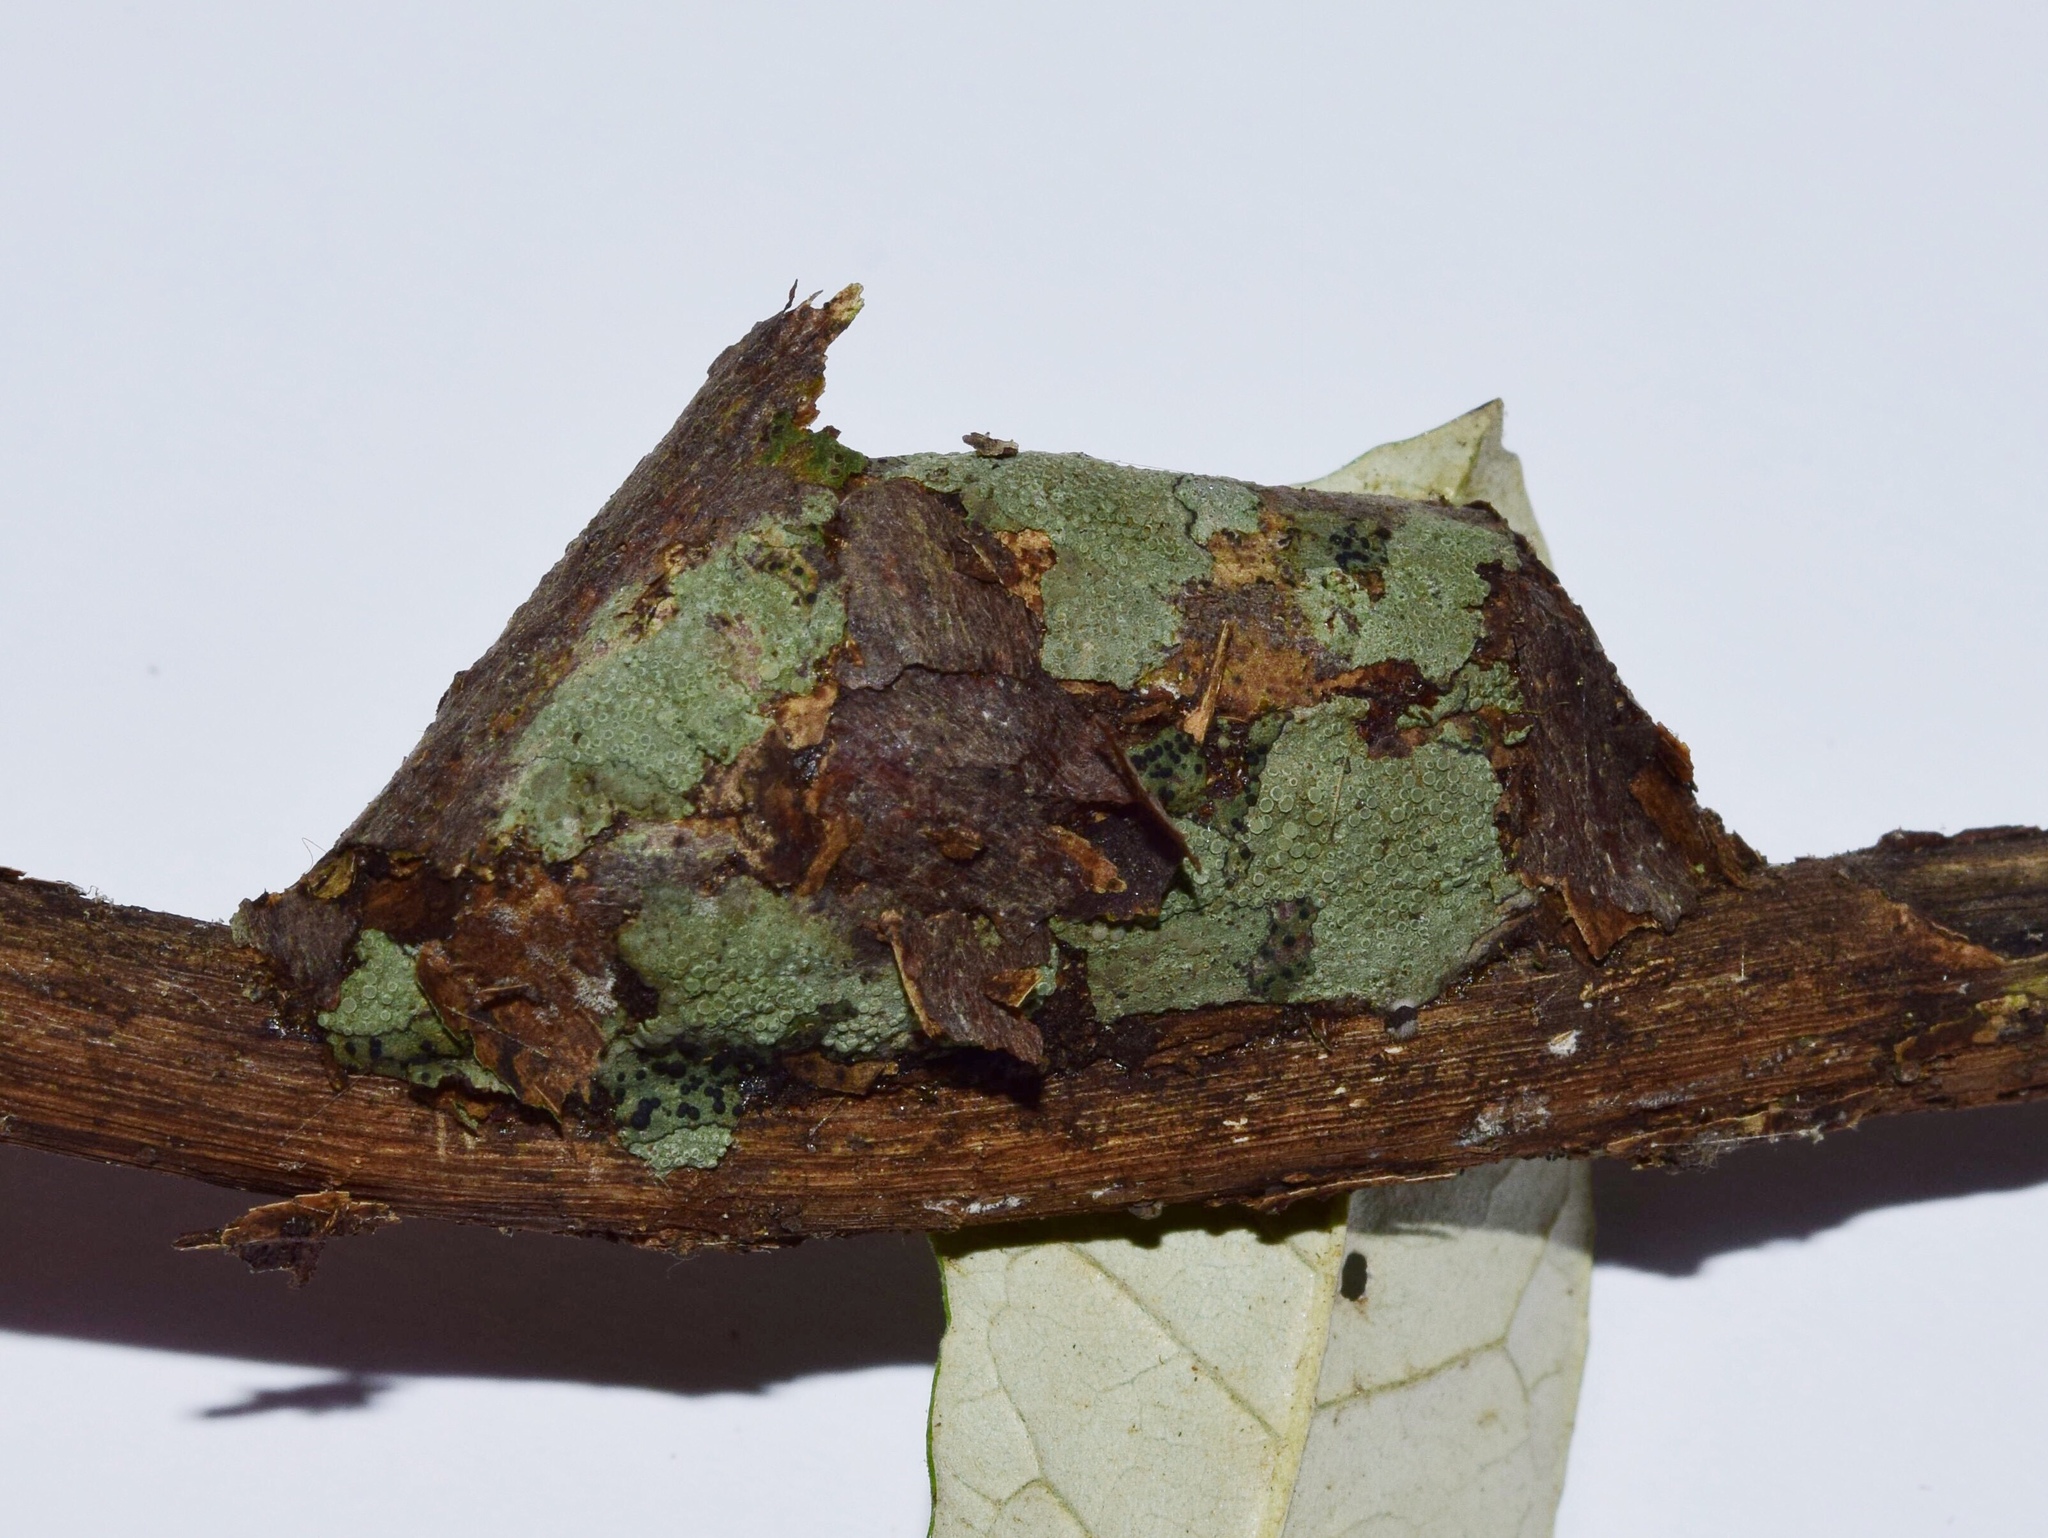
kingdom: Animalia
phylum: Arthropoda
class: Insecta
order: Lepidoptera
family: Saturniidae
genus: Ludia
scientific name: Ludia delegorguei
